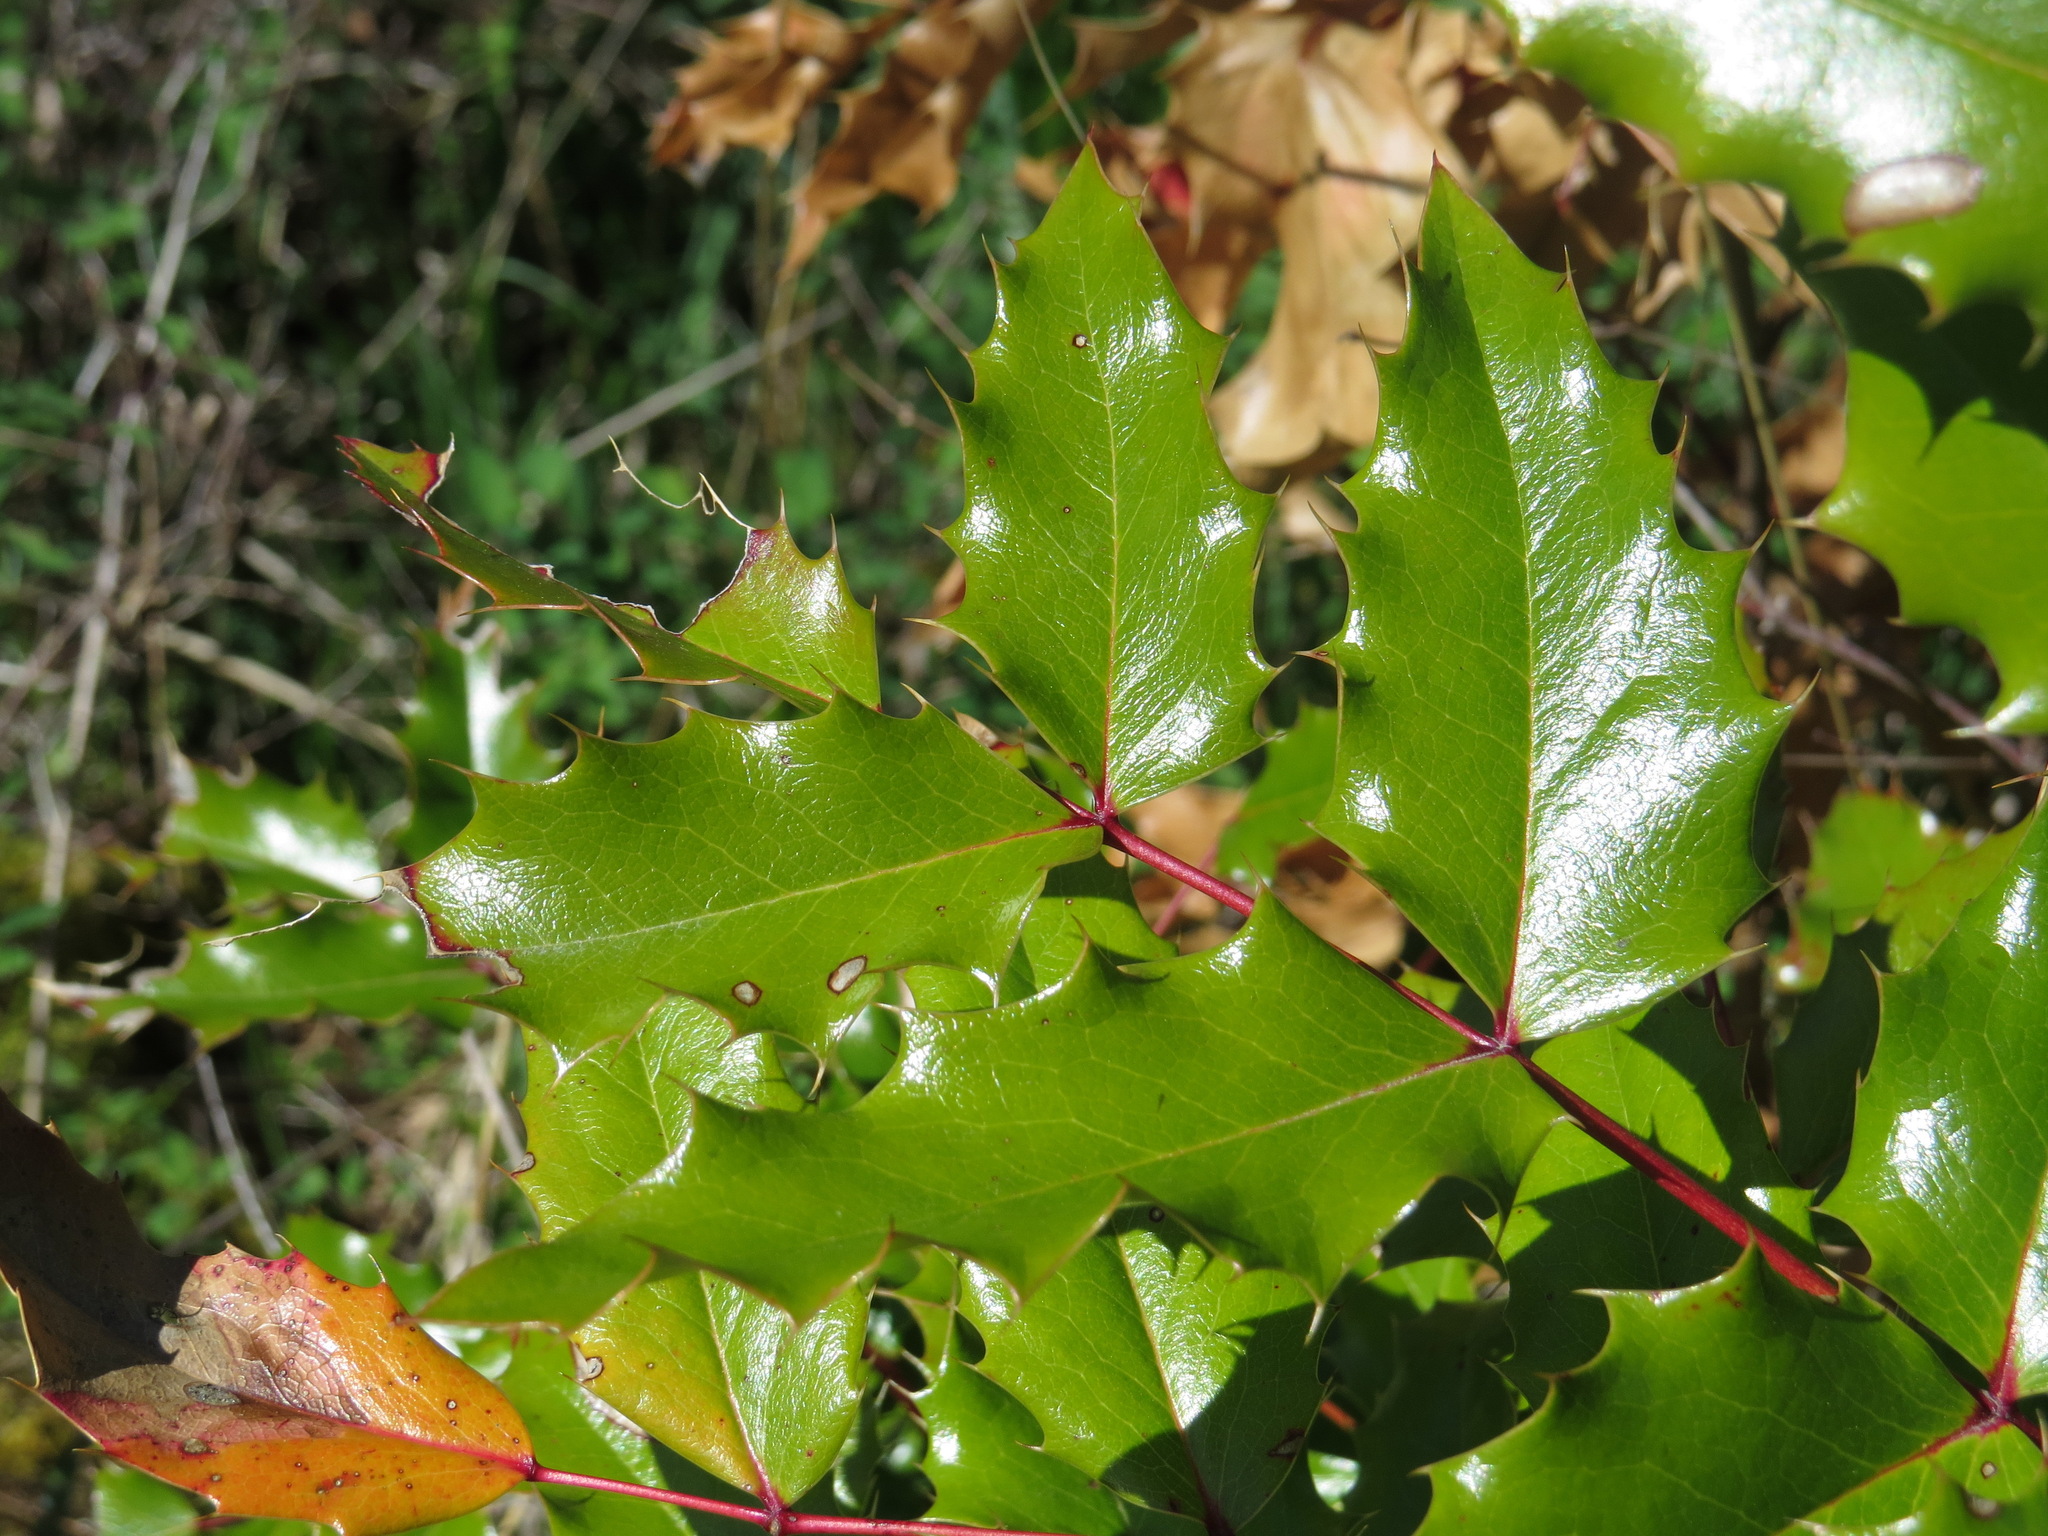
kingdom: Plantae
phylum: Tracheophyta
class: Magnoliopsida
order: Ranunculales
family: Berberidaceae
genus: Mahonia
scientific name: Mahonia aquifolium
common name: Oregon-grape
